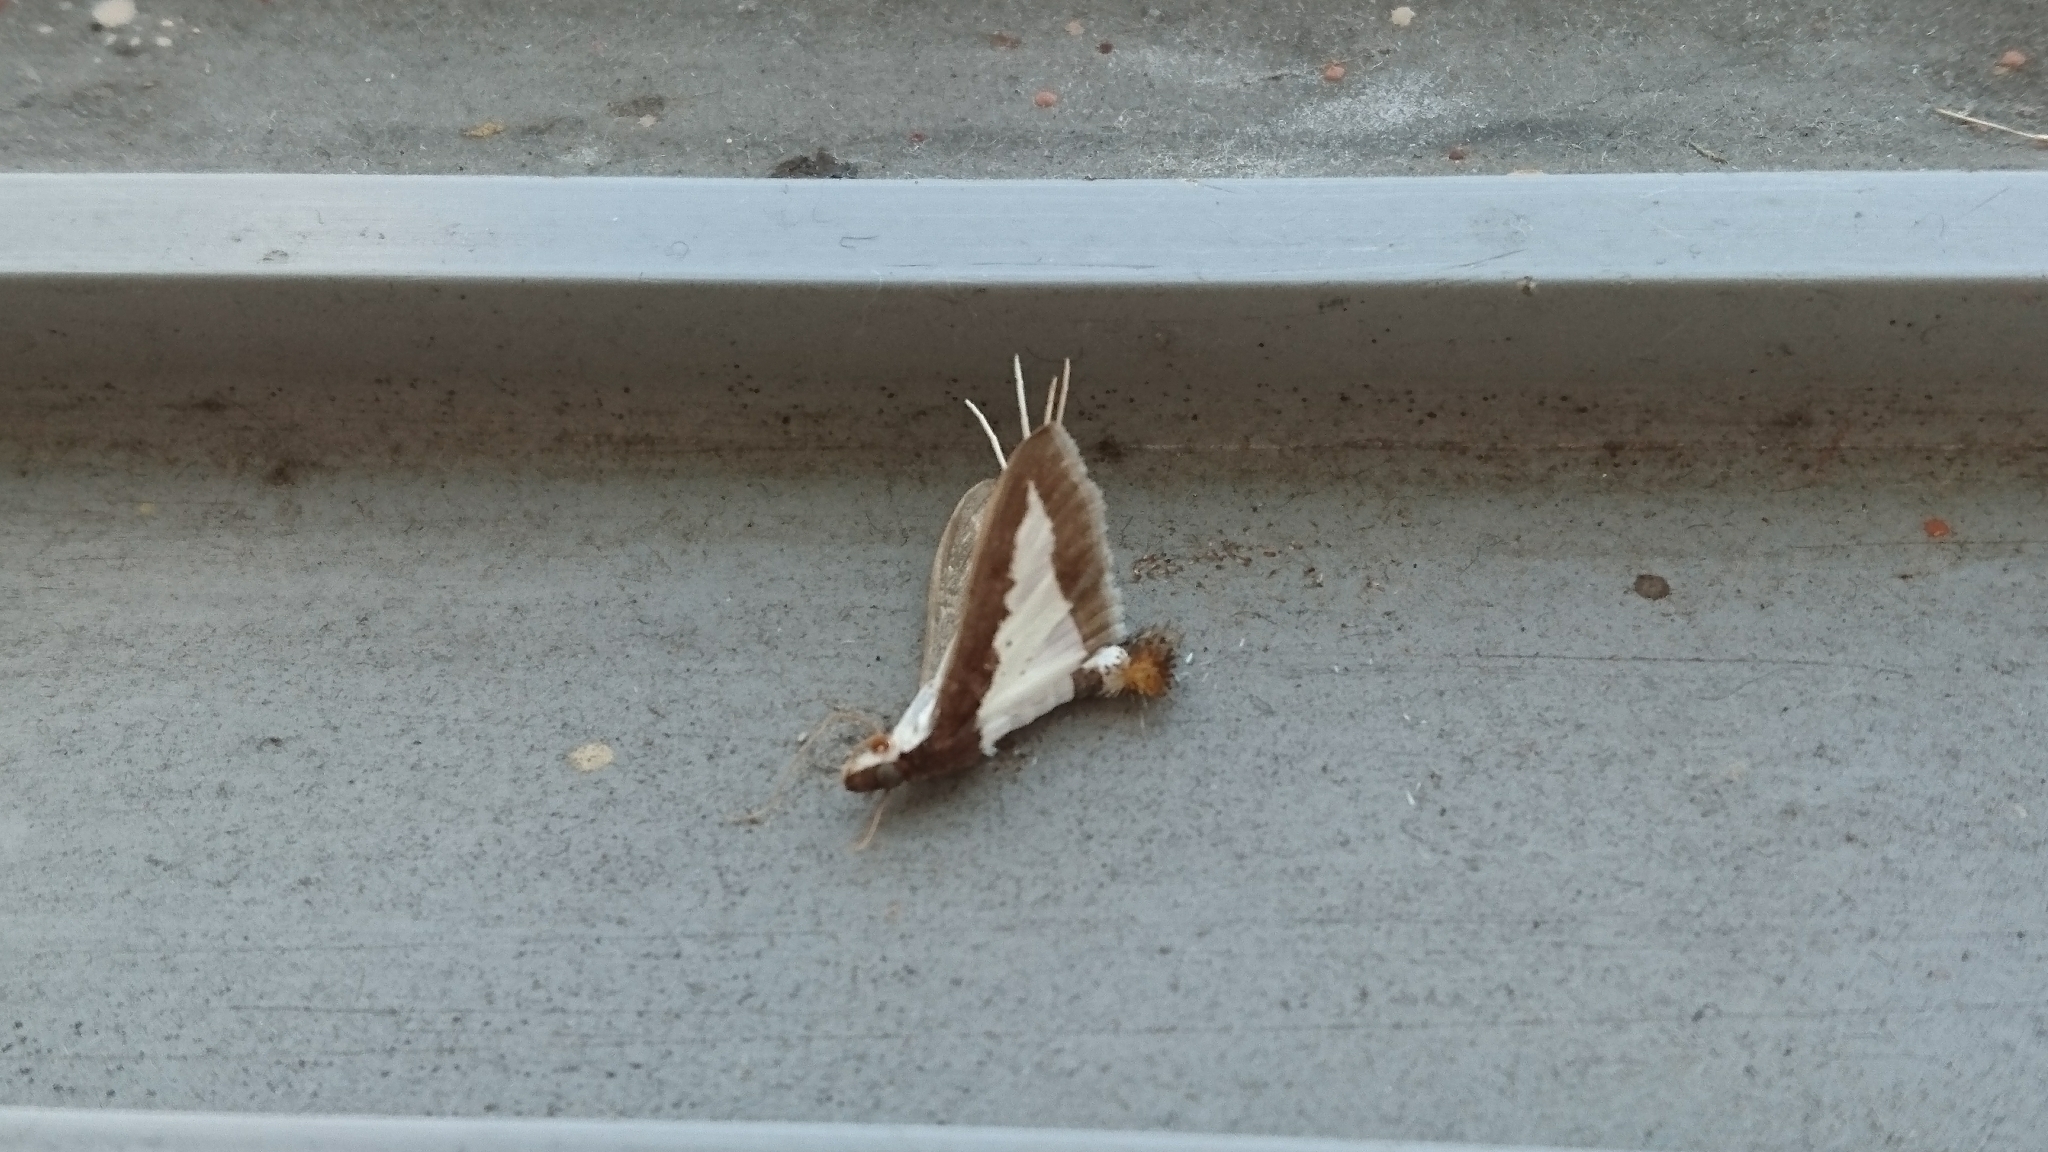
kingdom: Animalia
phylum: Arthropoda
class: Insecta
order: Lepidoptera
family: Crambidae
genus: Diaphania
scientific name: Diaphania indica
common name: Cucumber moth
